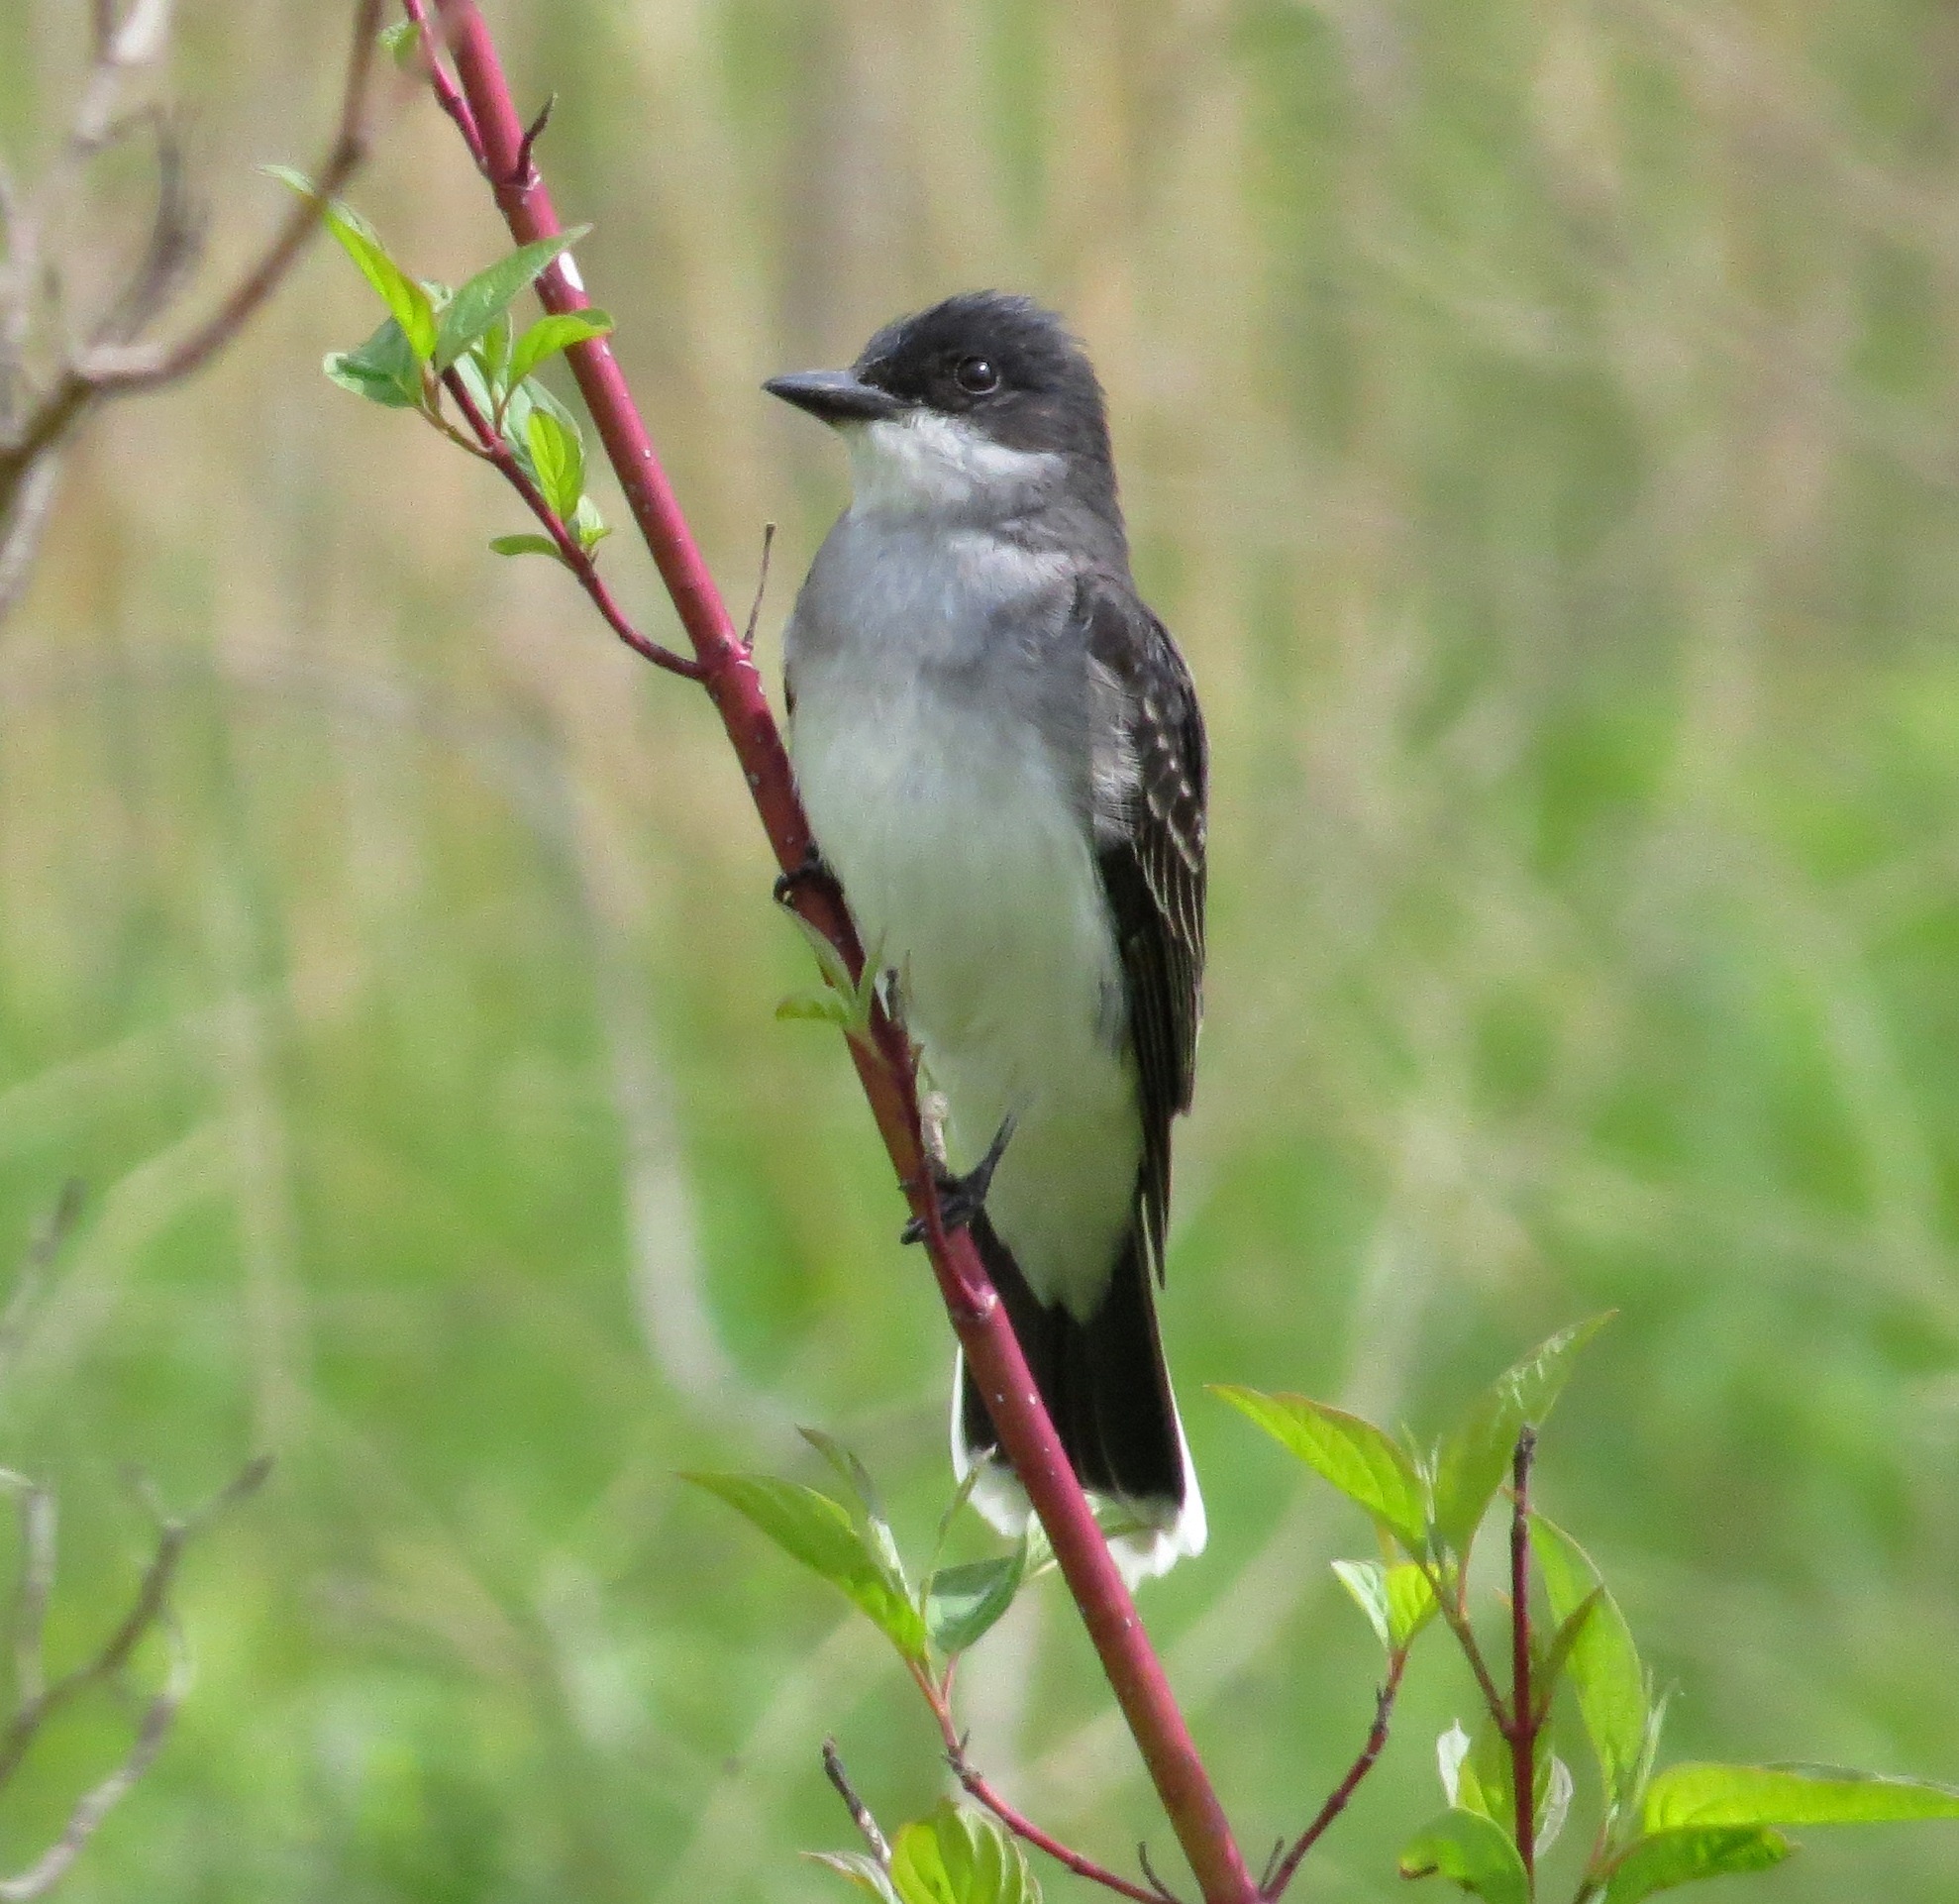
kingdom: Animalia
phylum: Chordata
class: Aves
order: Passeriformes
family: Tyrannidae
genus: Tyrannus
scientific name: Tyrannus tyrannus
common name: Eastern kingbird
